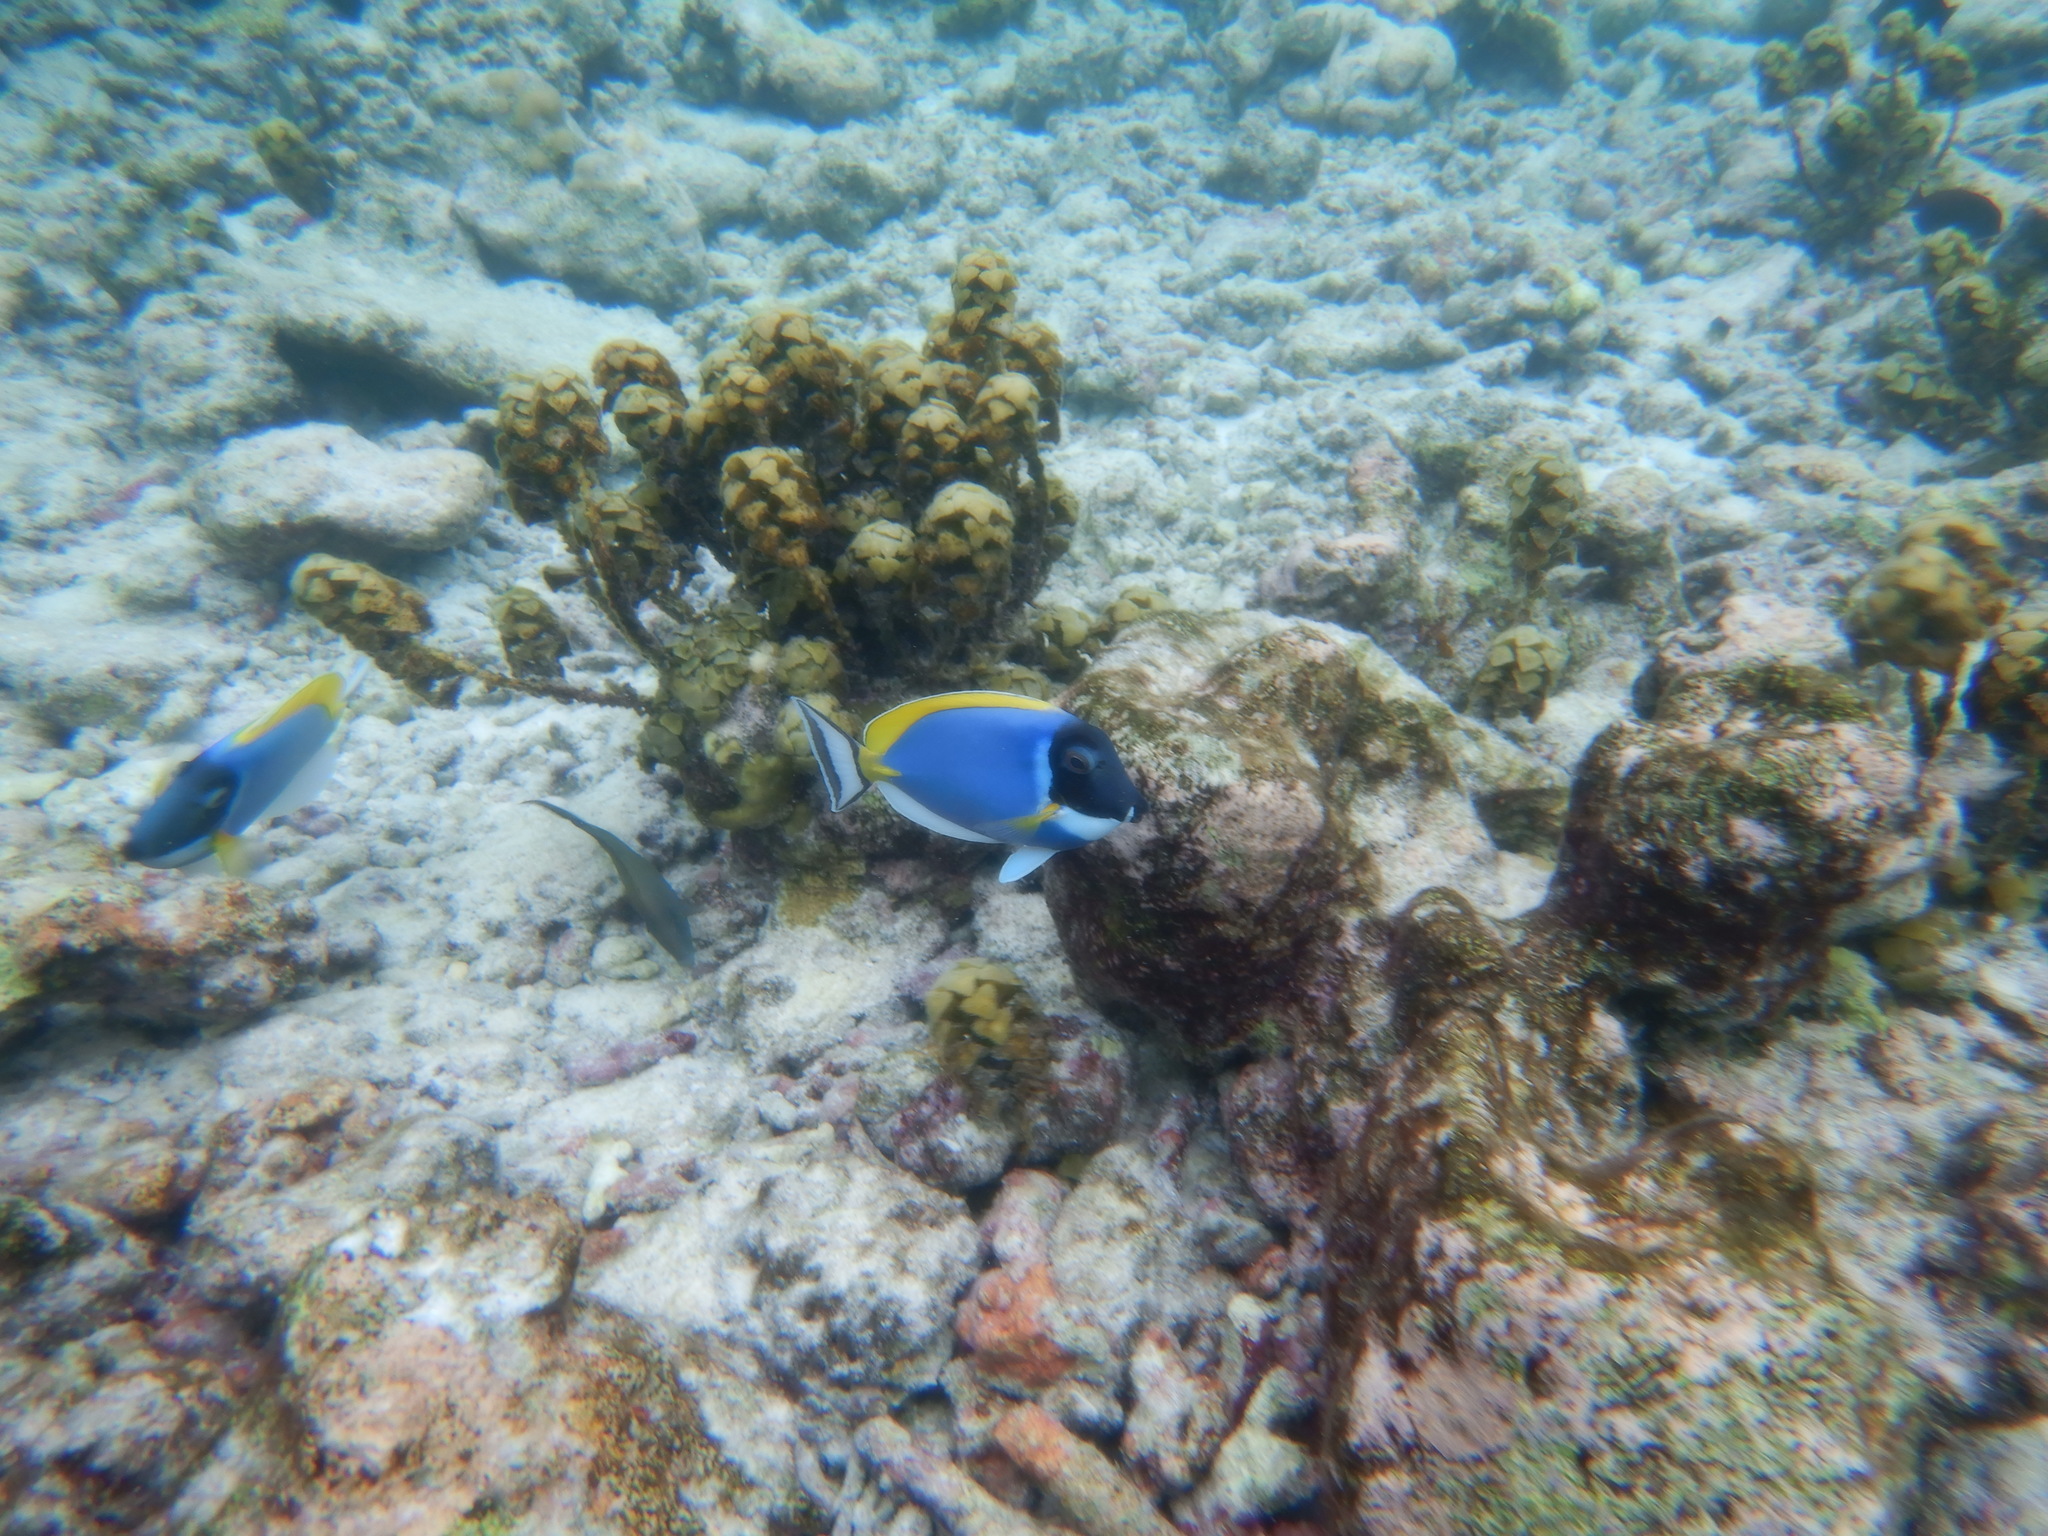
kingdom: Animalia
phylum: Chordata
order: Perciformes
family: Acanthuridae
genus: Acanthurus
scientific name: Acanthurus leucosternon
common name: Blue surgeonfish
